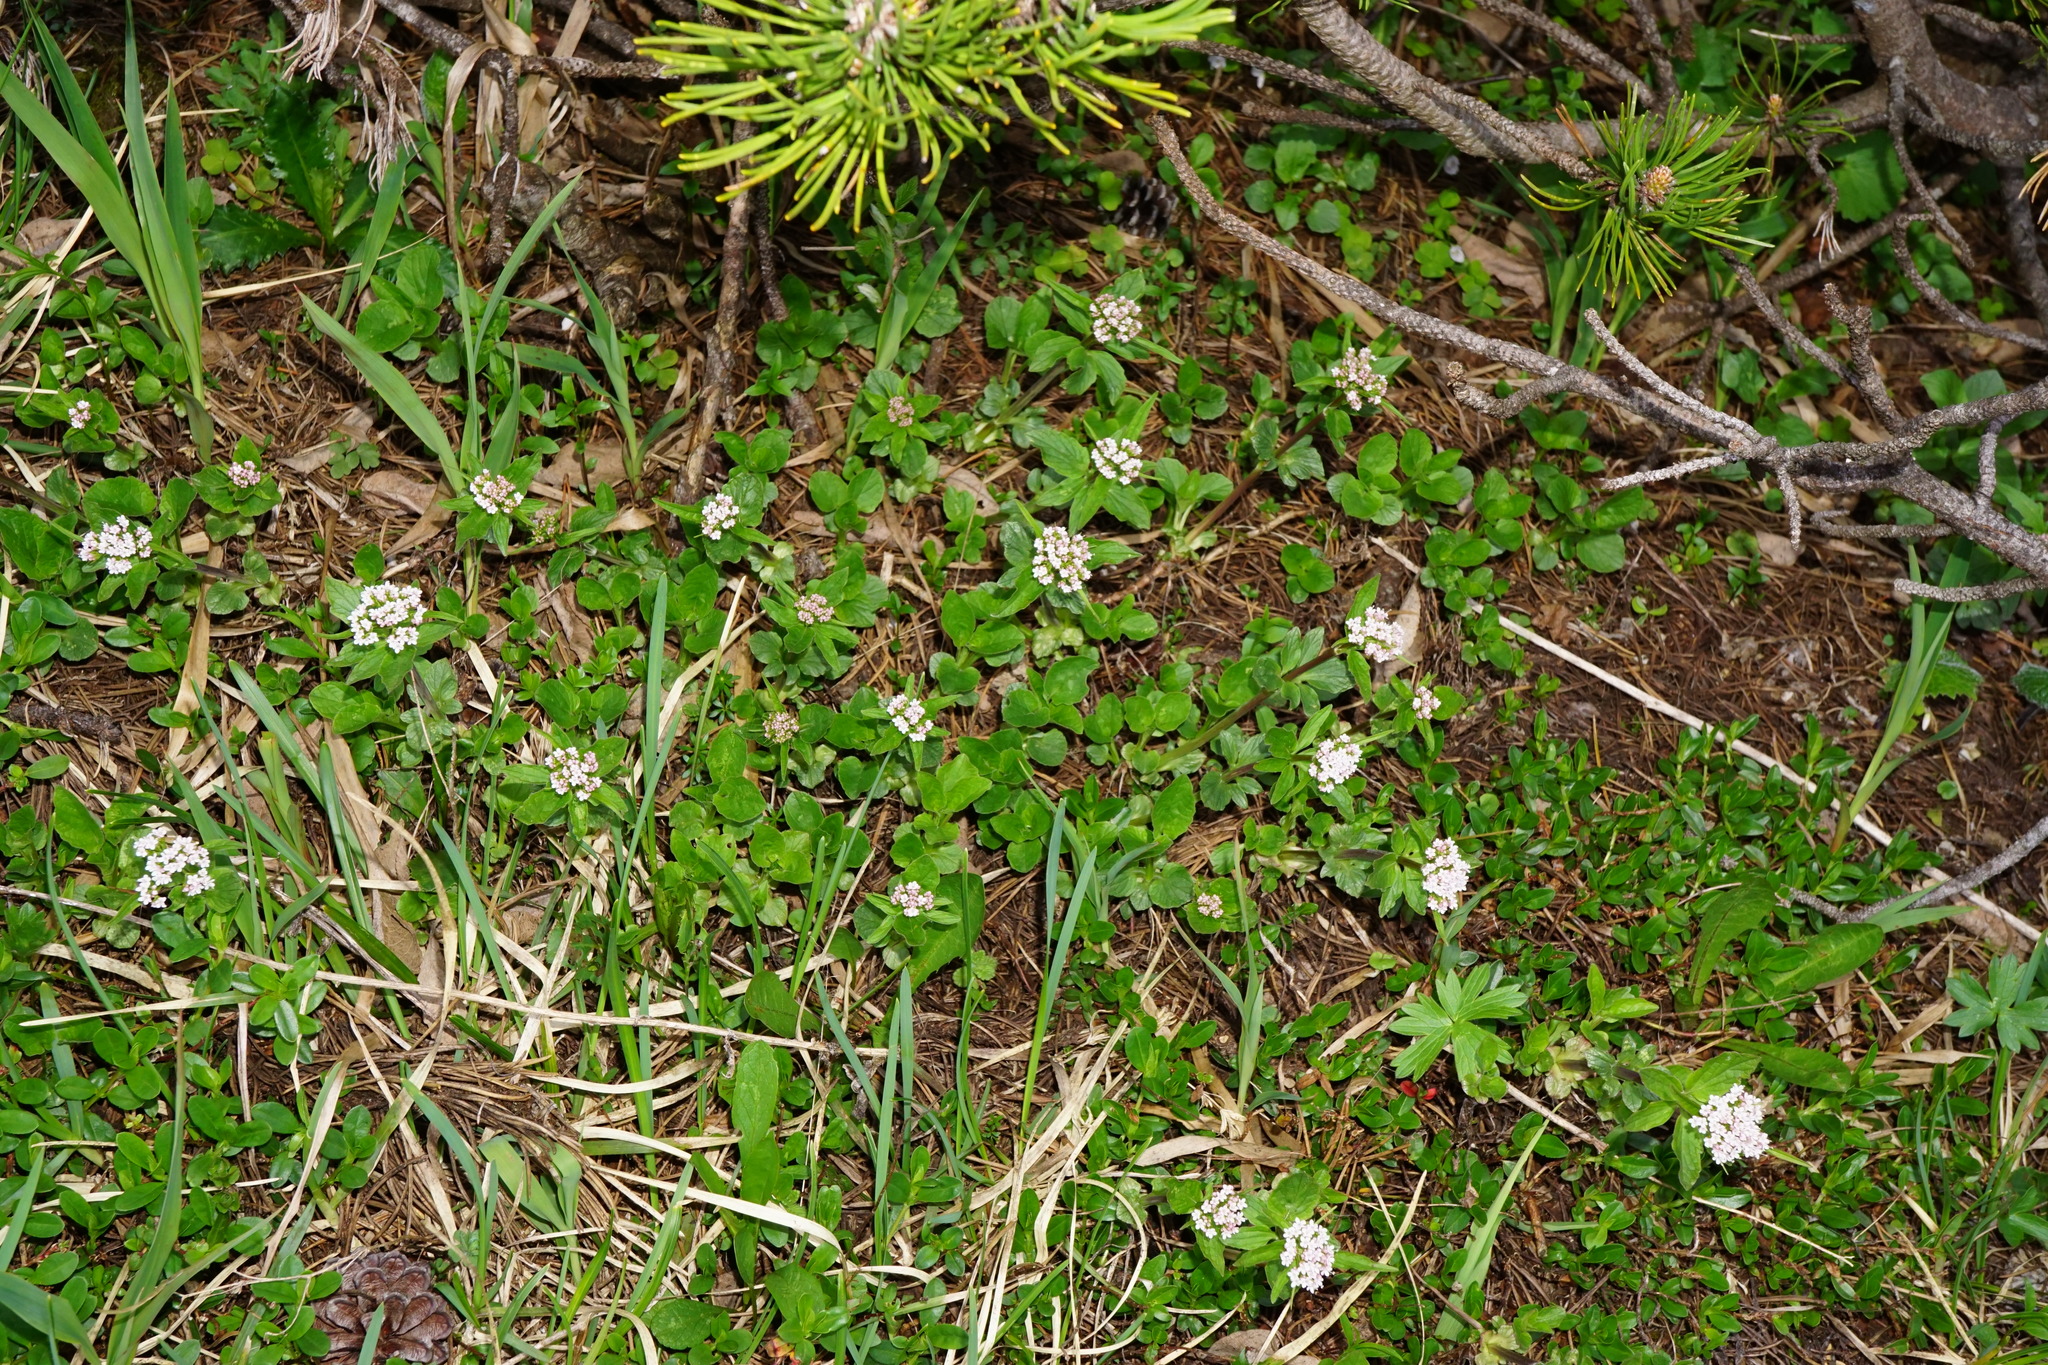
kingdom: Plantae
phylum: Tracheophyta
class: Magnoliopsida
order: Dipsacales
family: Caprifoliaceae
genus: Valeriana
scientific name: Valeriana tripteris
